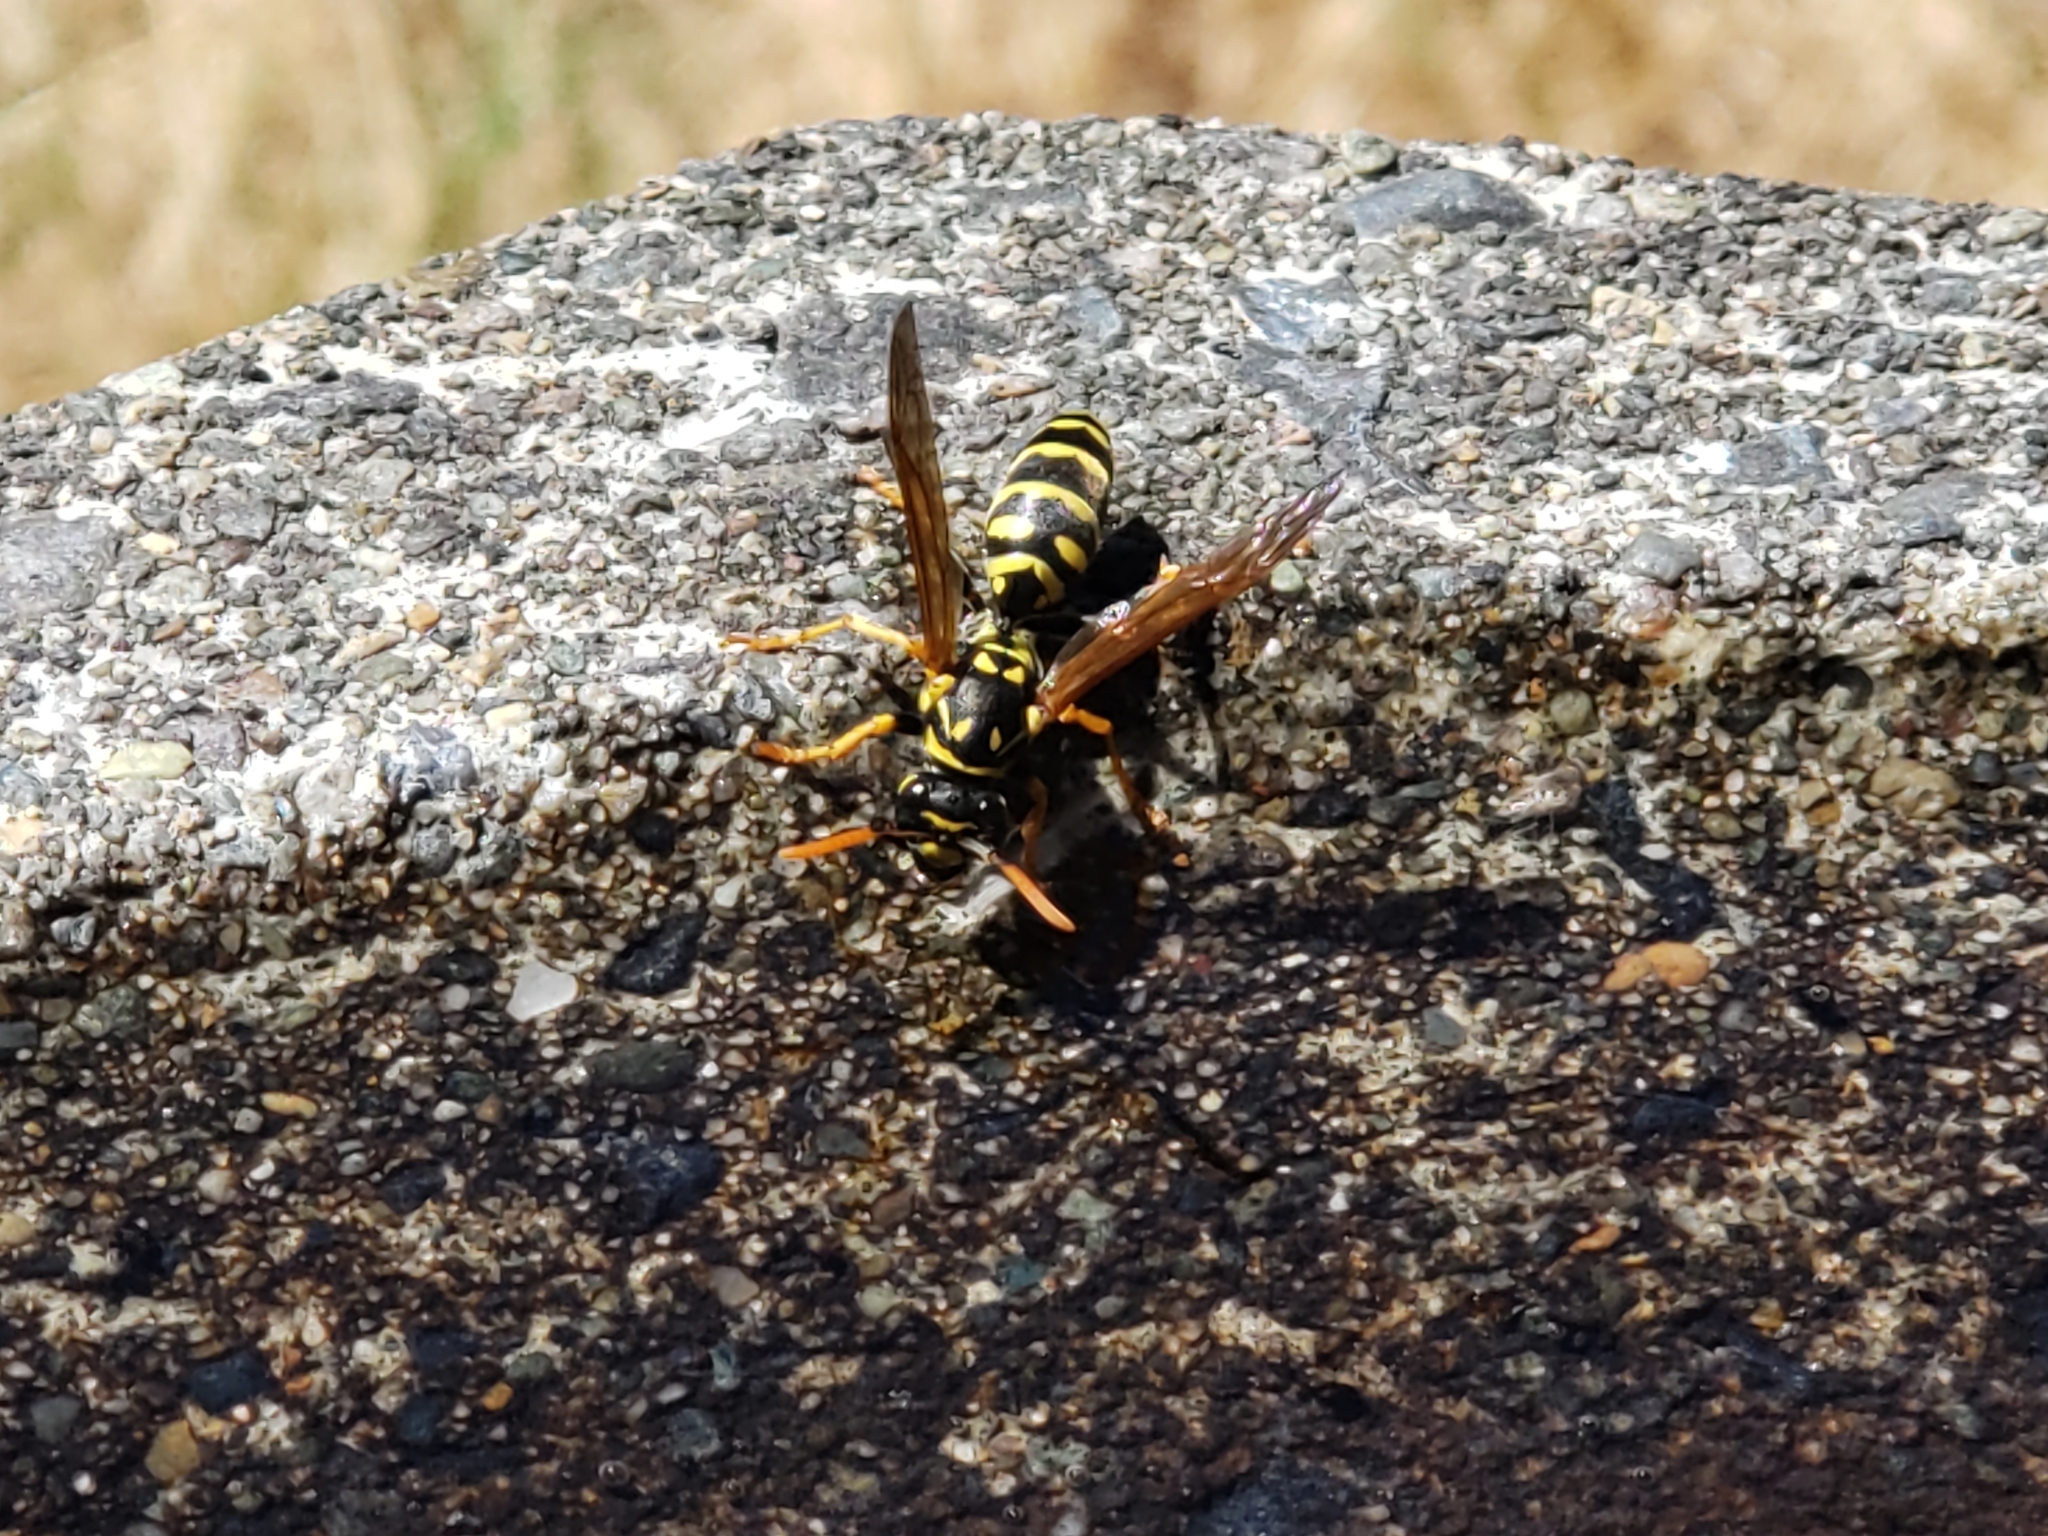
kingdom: Animalia
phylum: Arthropoda
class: Insecta
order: Hymenoptera
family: Eumenidae
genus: Polistes
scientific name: Polistes dominula
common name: Paper wasp
